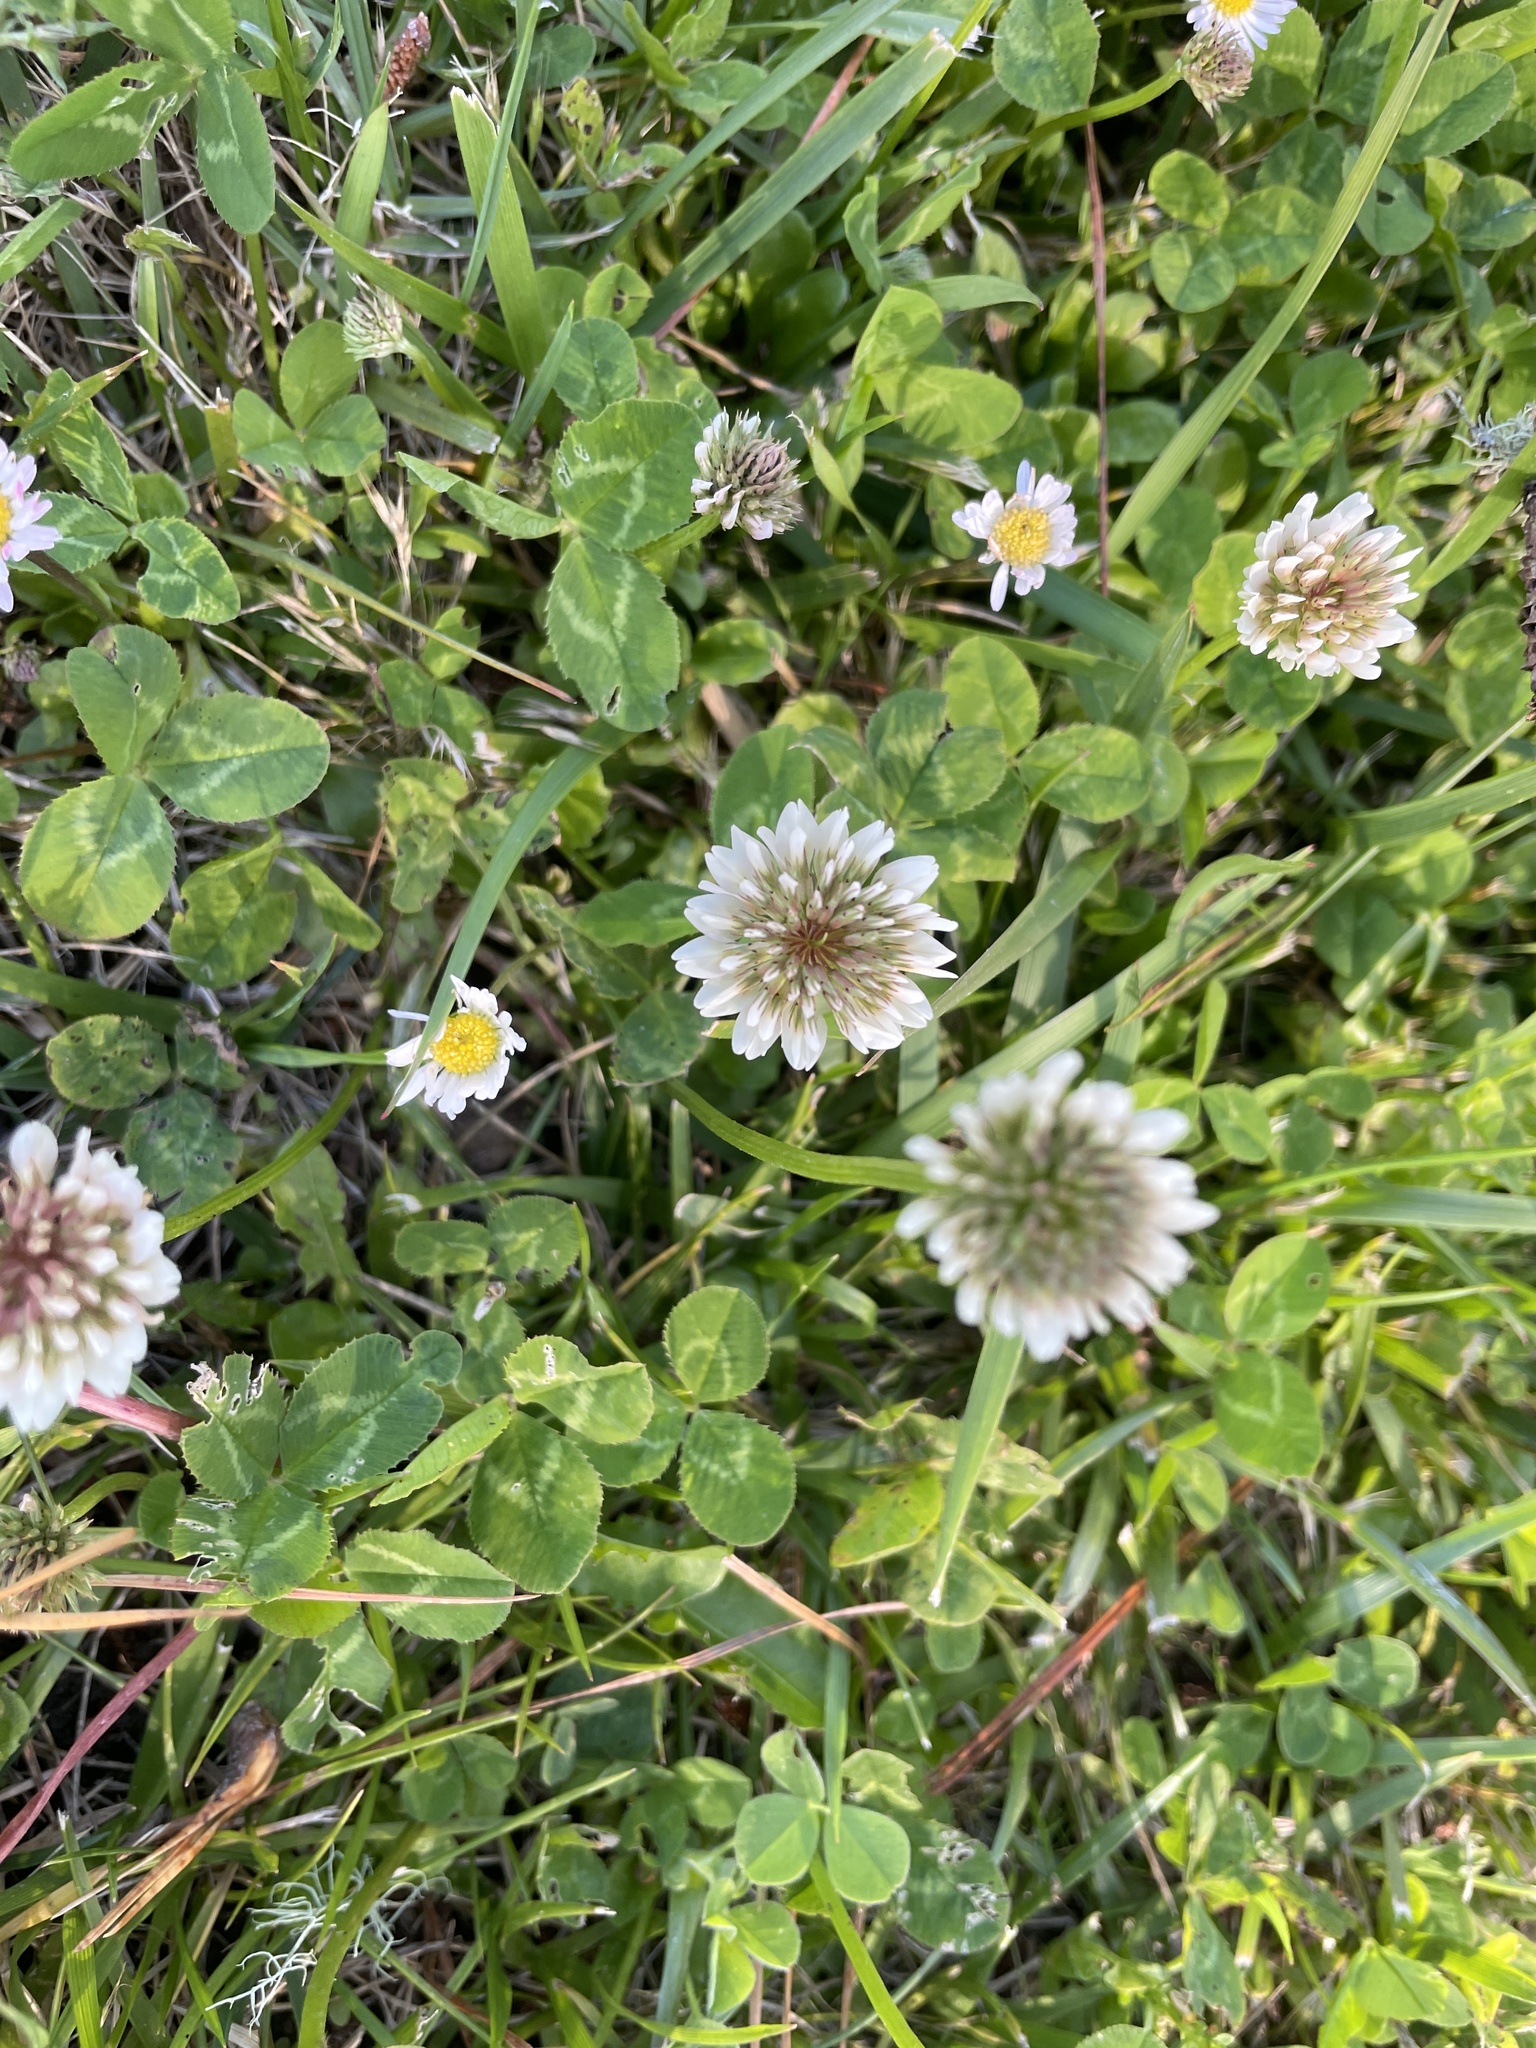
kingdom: Plantae
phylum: Tracheophyta
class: Magnoliopsida
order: Fabales
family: Fabaceae
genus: Trifolium
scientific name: Trifolium repens
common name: White clover
